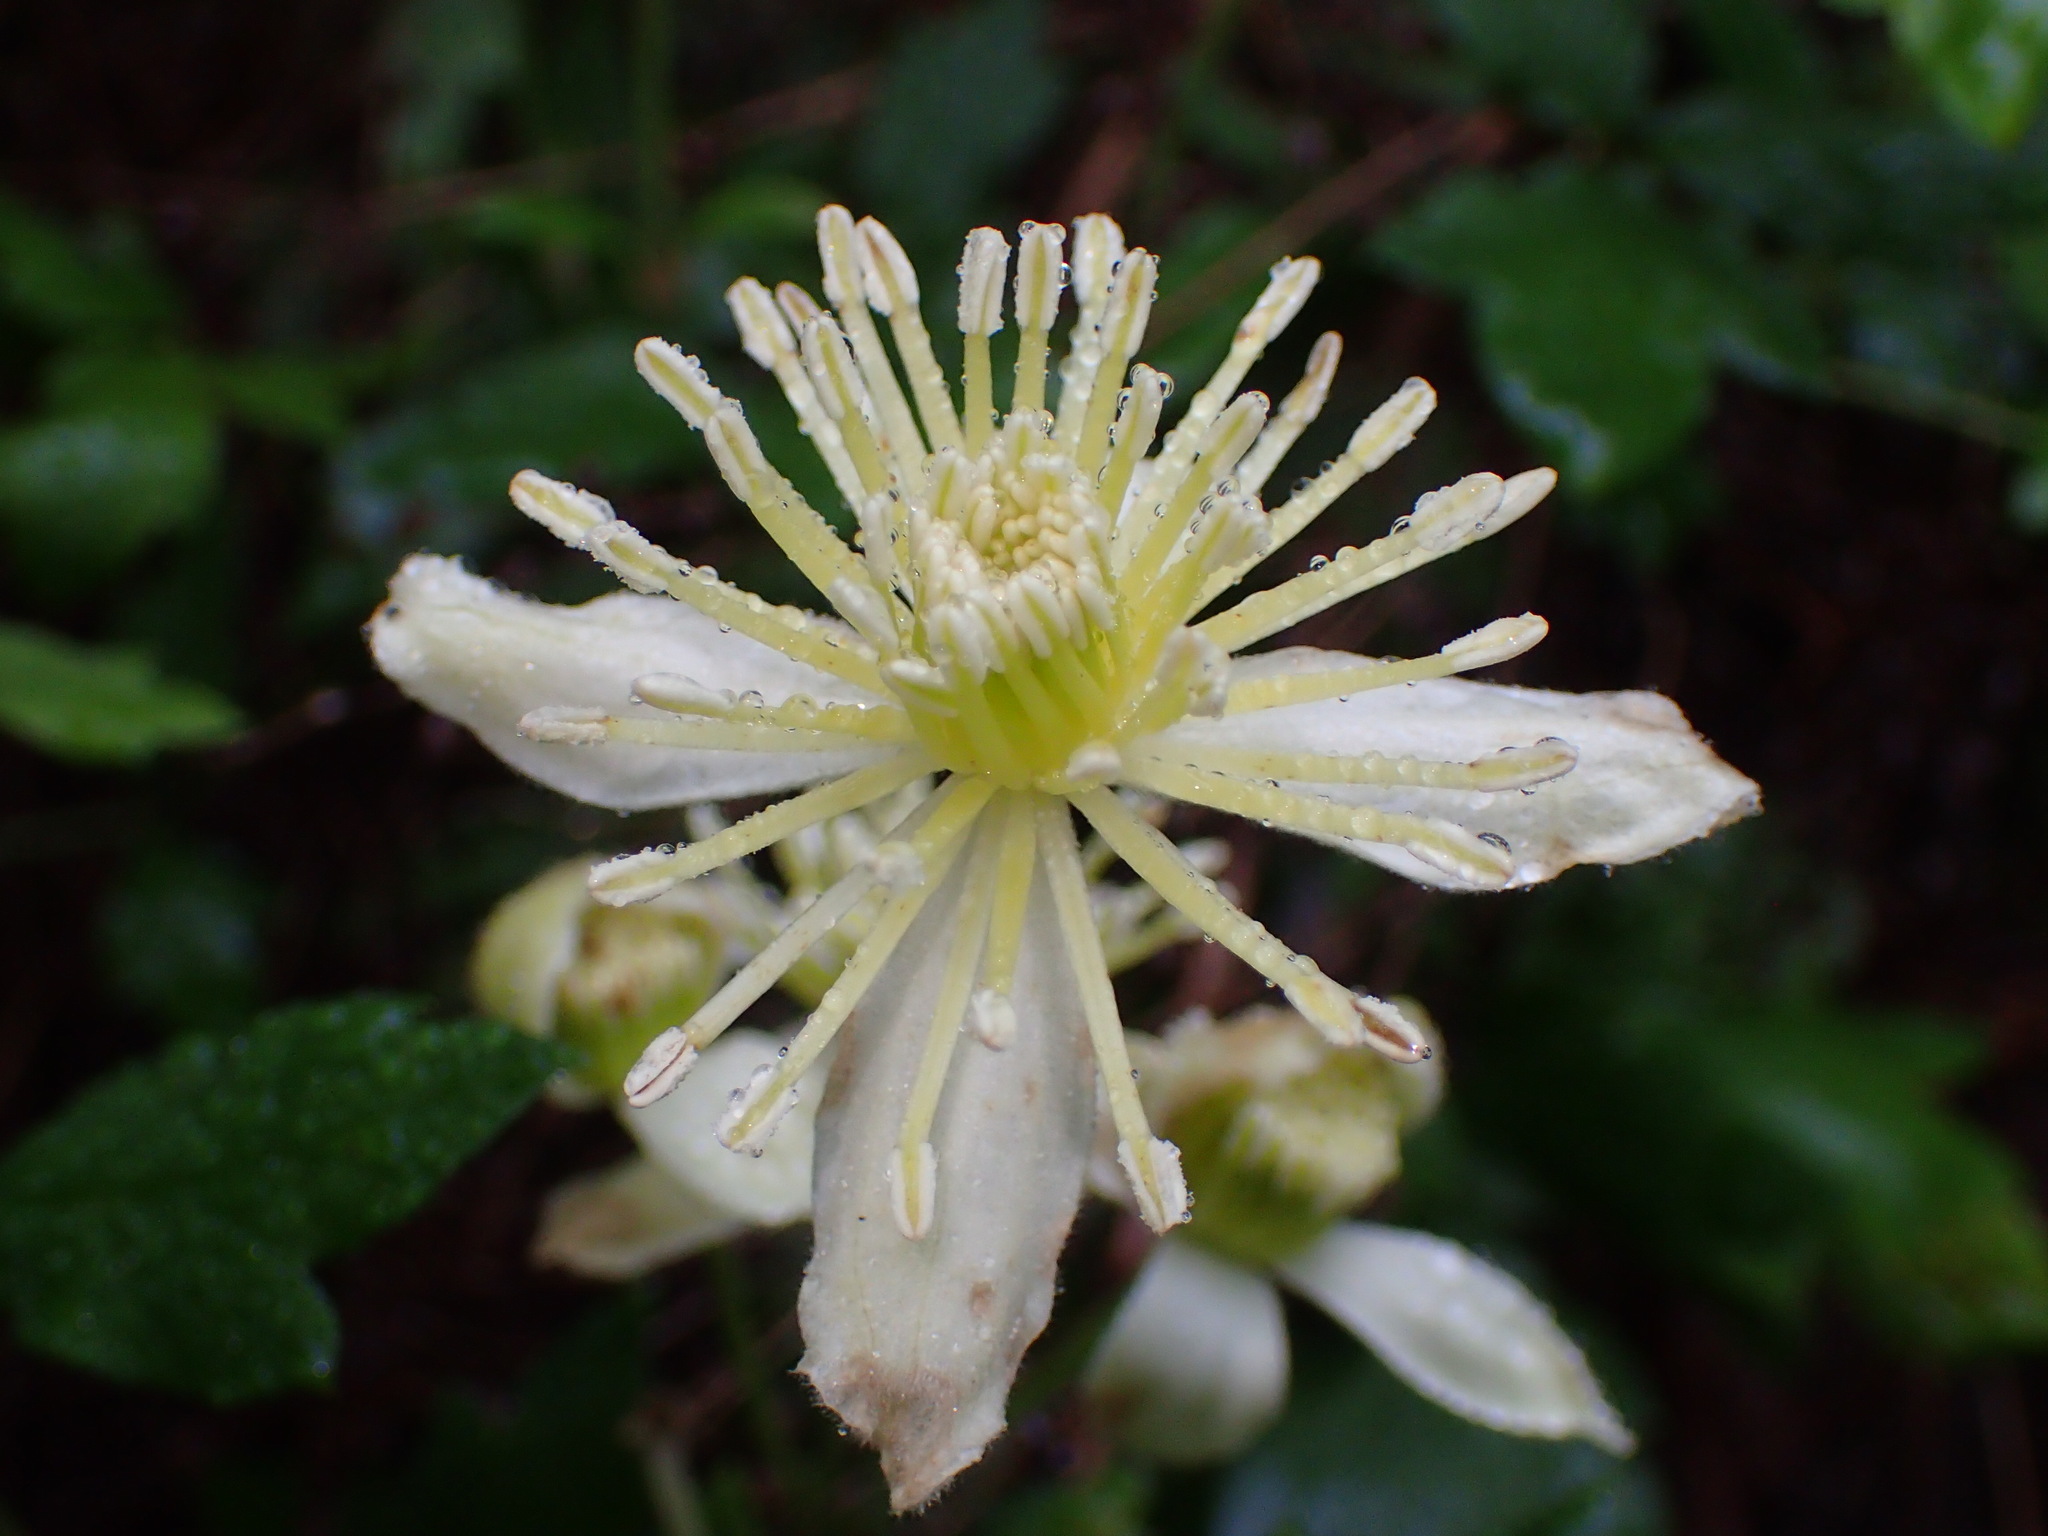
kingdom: Plantae
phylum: Tracheophyta
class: Magnoliopsida
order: Ranunculales
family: Ranunculaceae
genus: Clematis
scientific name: Clematis lasiantha
